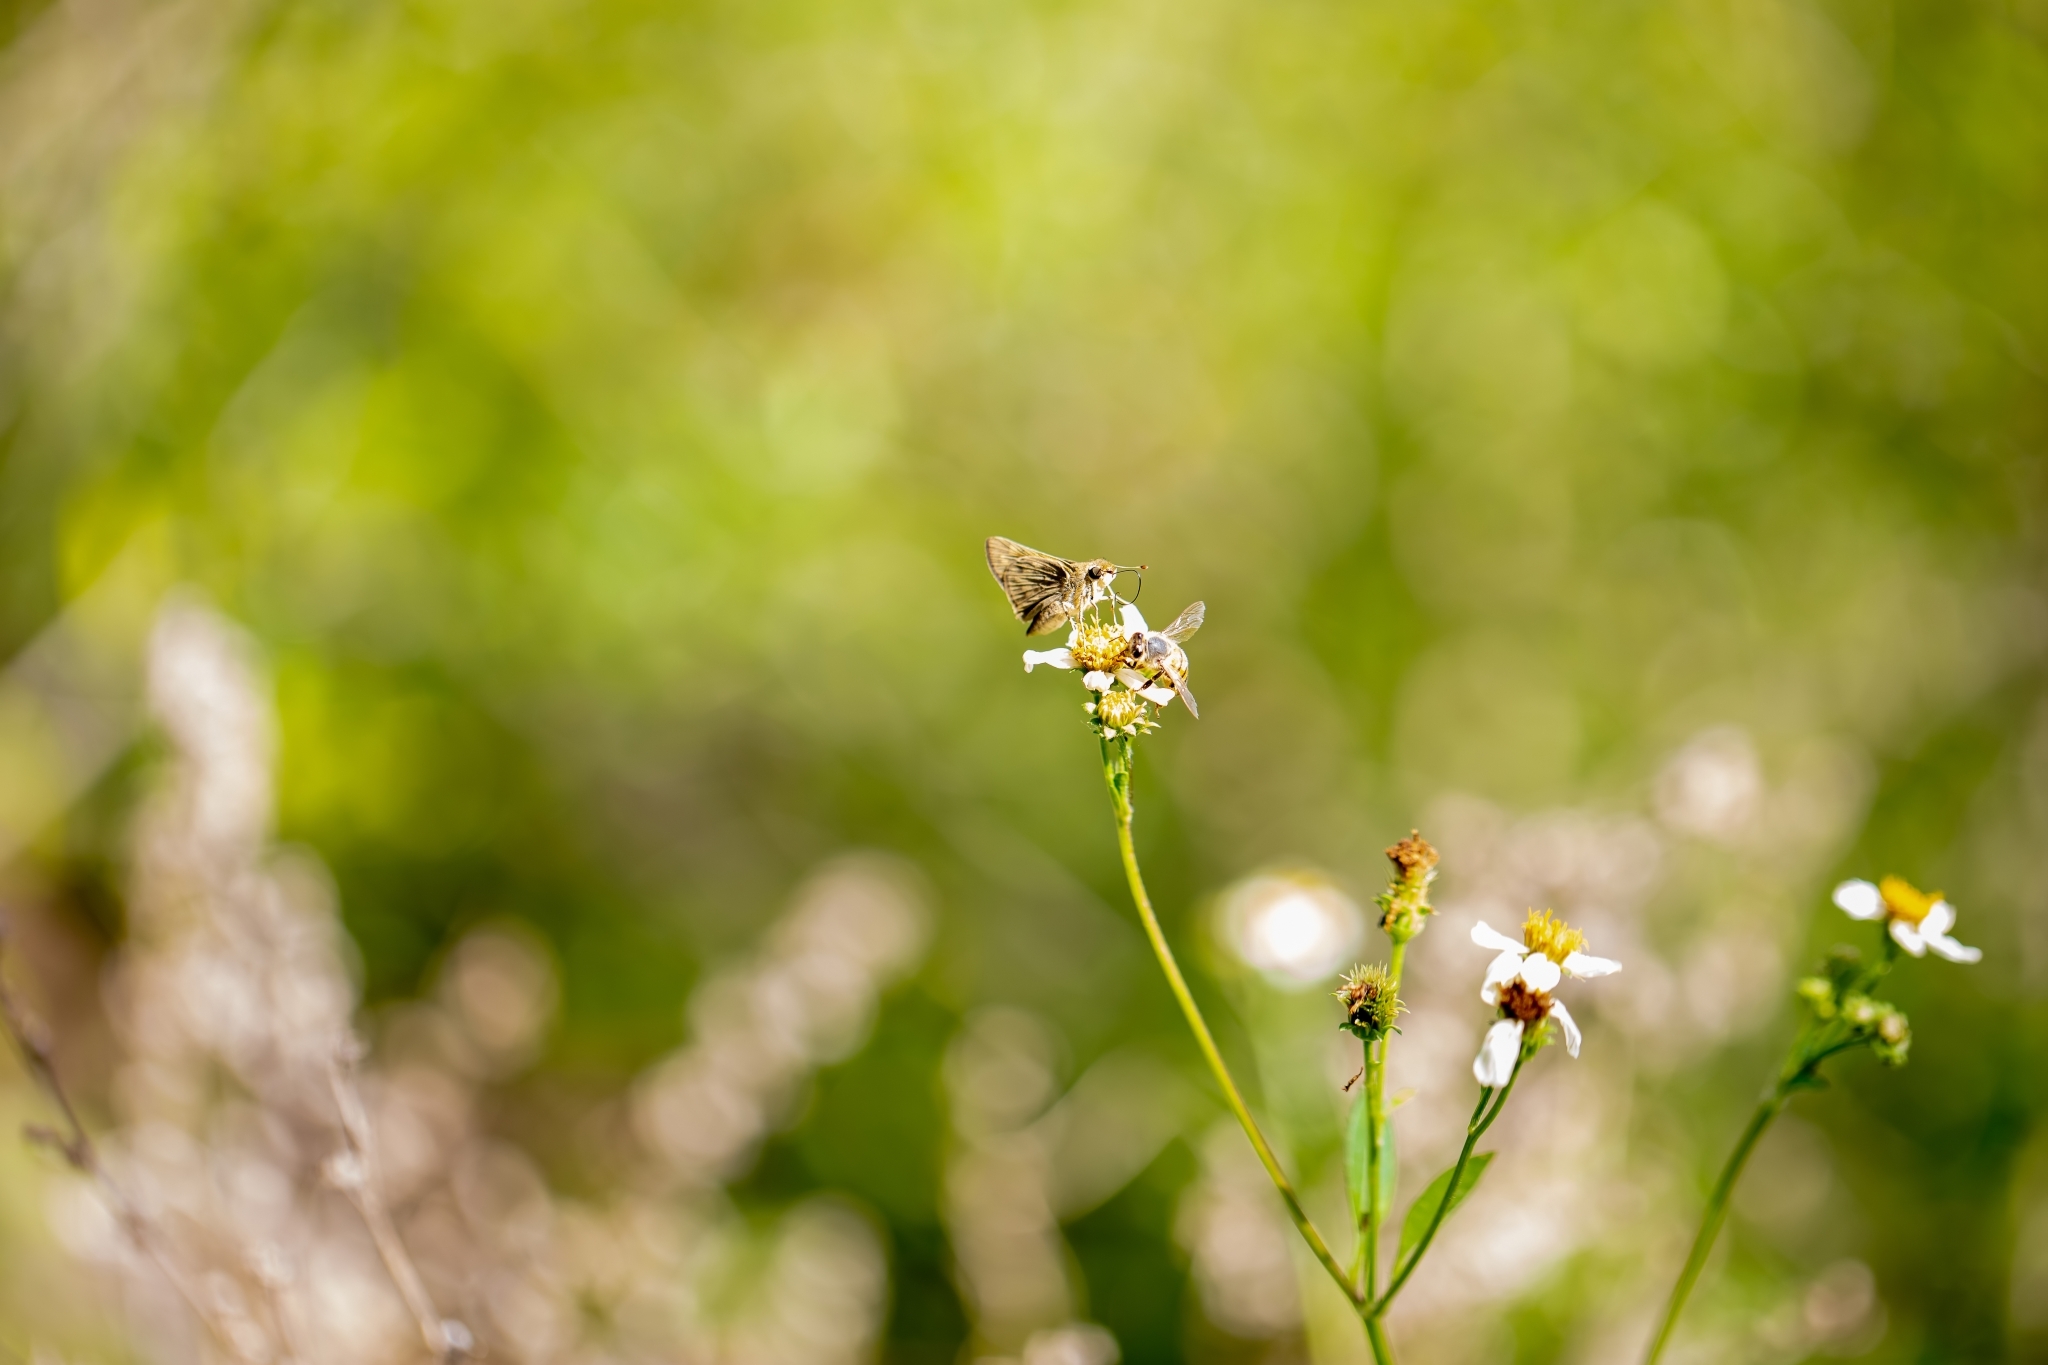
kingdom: Animalia
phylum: Arthropoda
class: Insecta
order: Lepidoptera
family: Hesperiidae
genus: Hylephila
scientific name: Hylephila phyleus
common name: Fiery skipper
